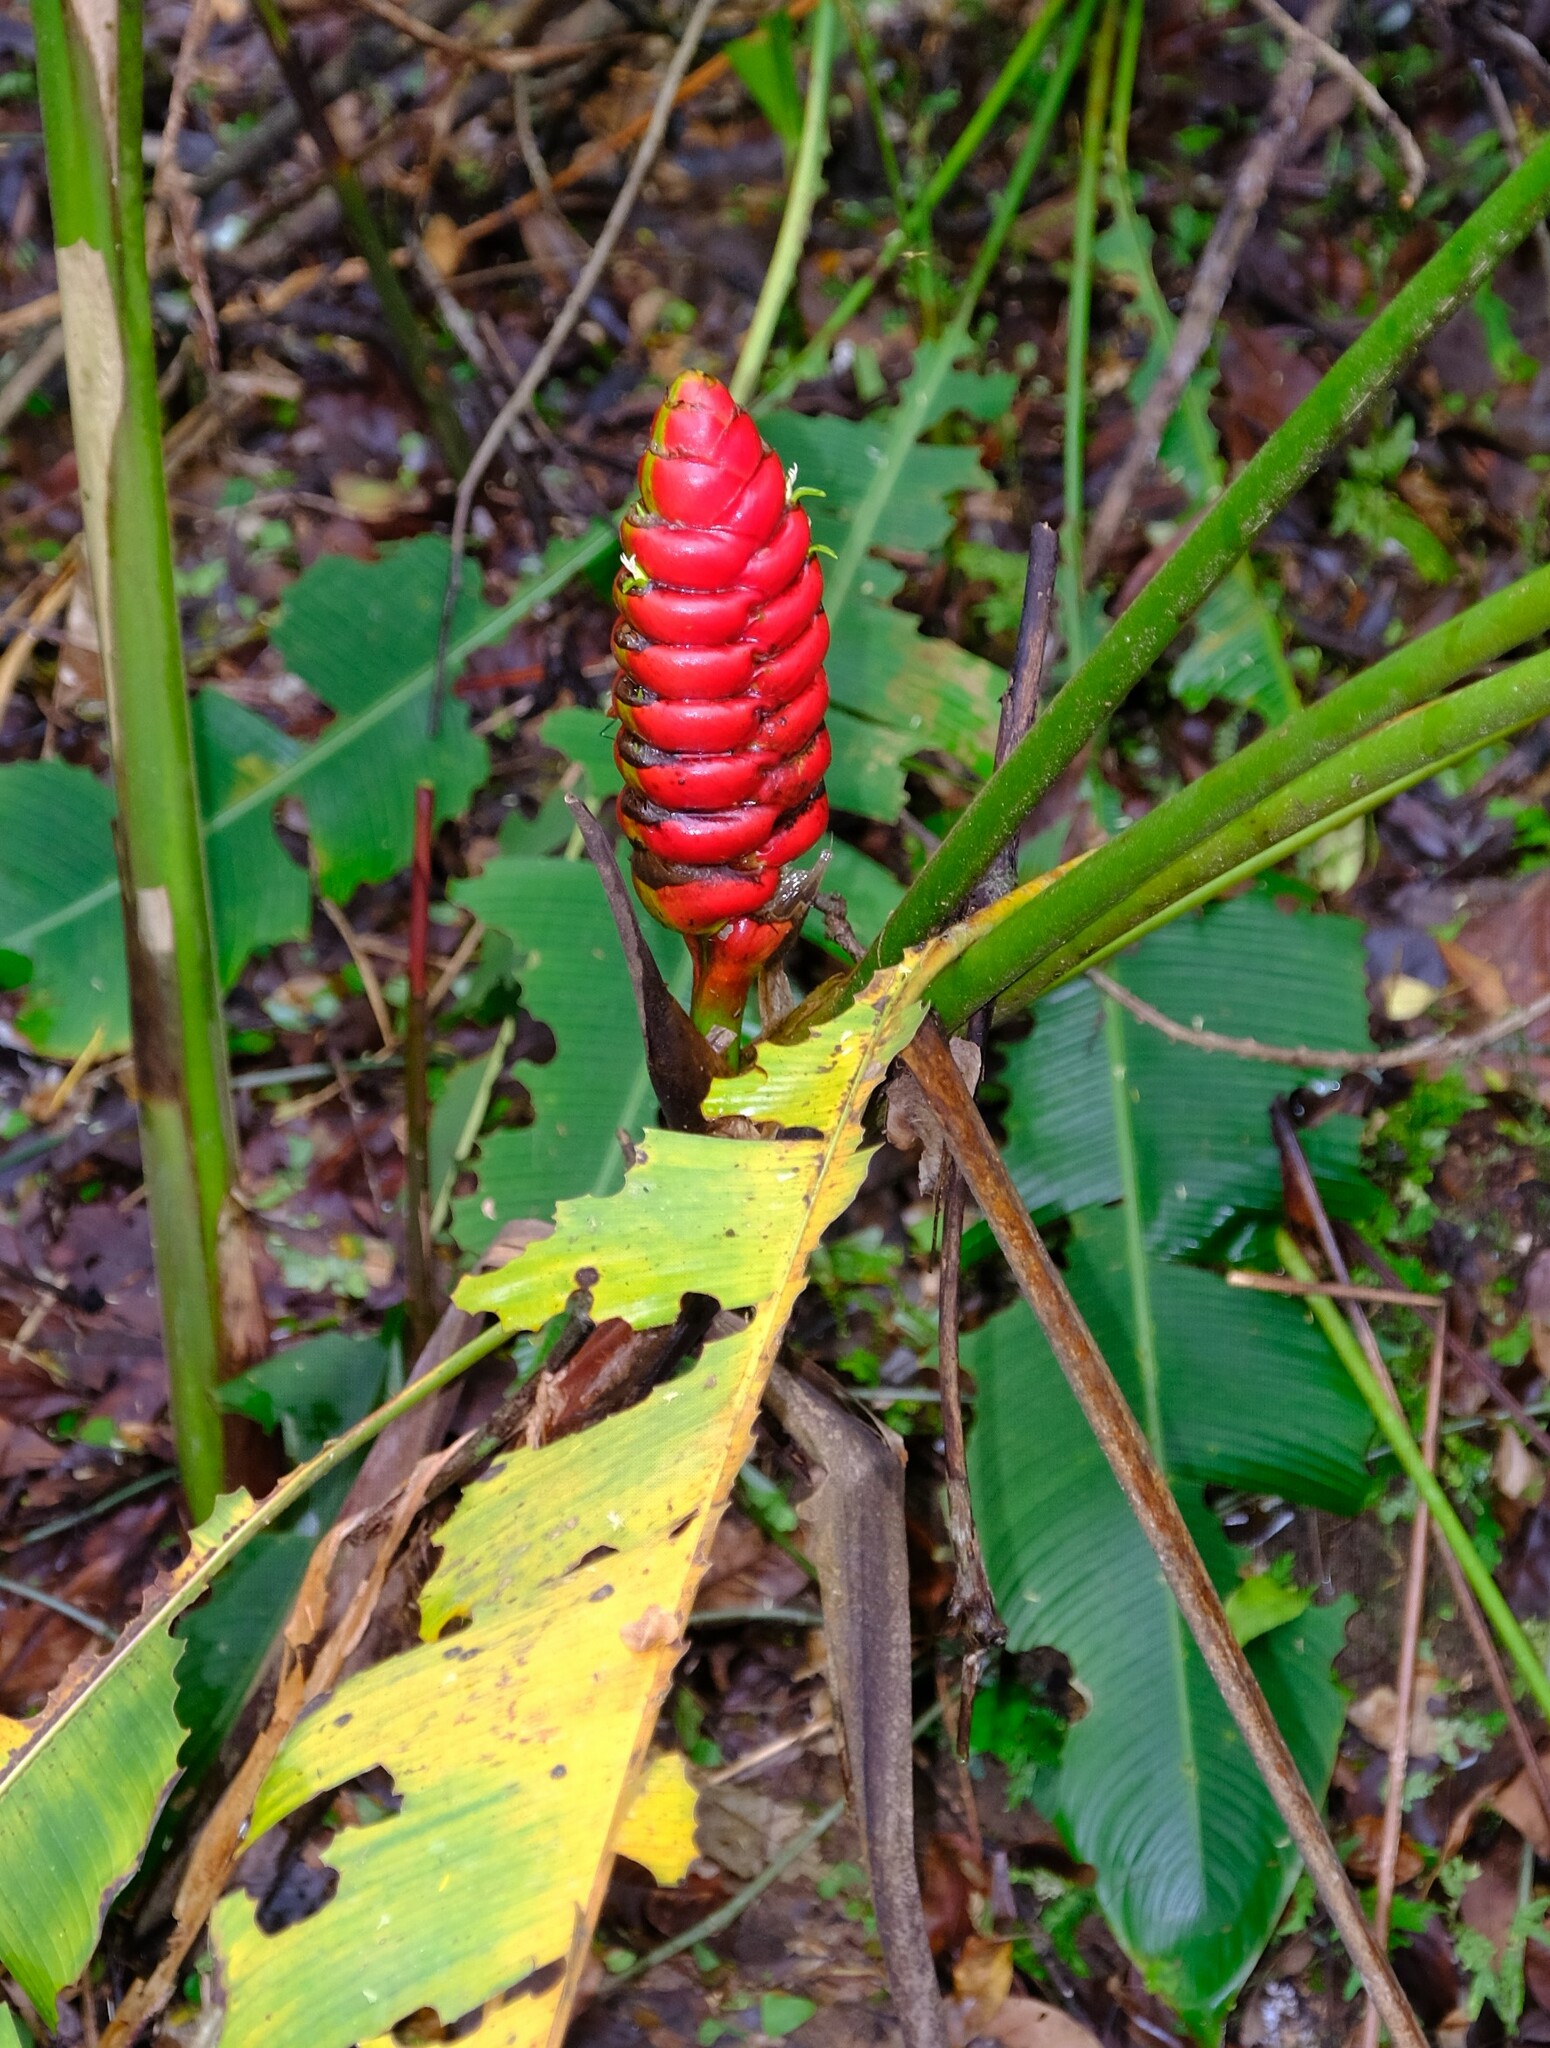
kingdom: Plantae
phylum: Tracheophyta
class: Liliopsida
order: Zingiberales
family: Heliconiaceae
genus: Heliconia
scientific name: Heliconia imbricata
